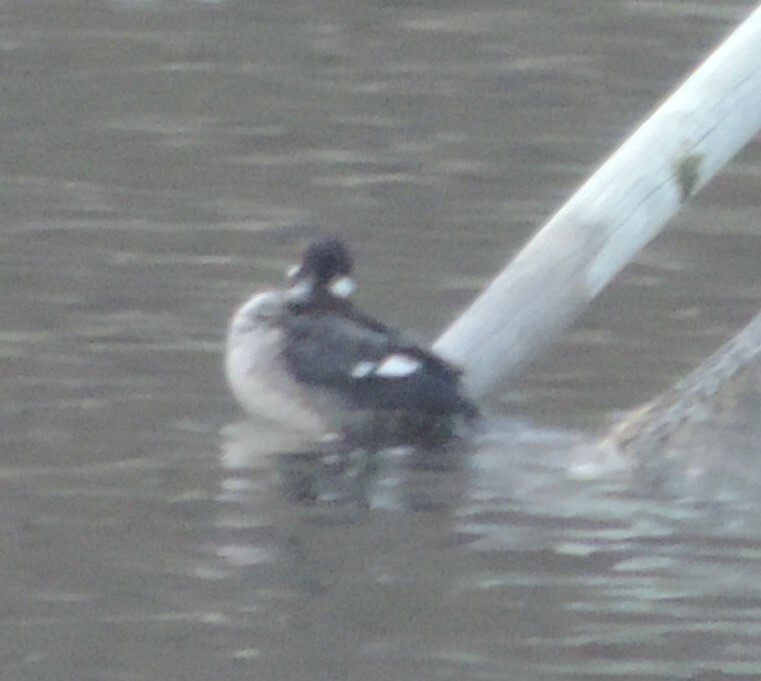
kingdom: Animalia
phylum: Chordata
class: Aves
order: Anseriformes
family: Anatidae
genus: Bucephala
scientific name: Bucephala albeola
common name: Bufflehead
